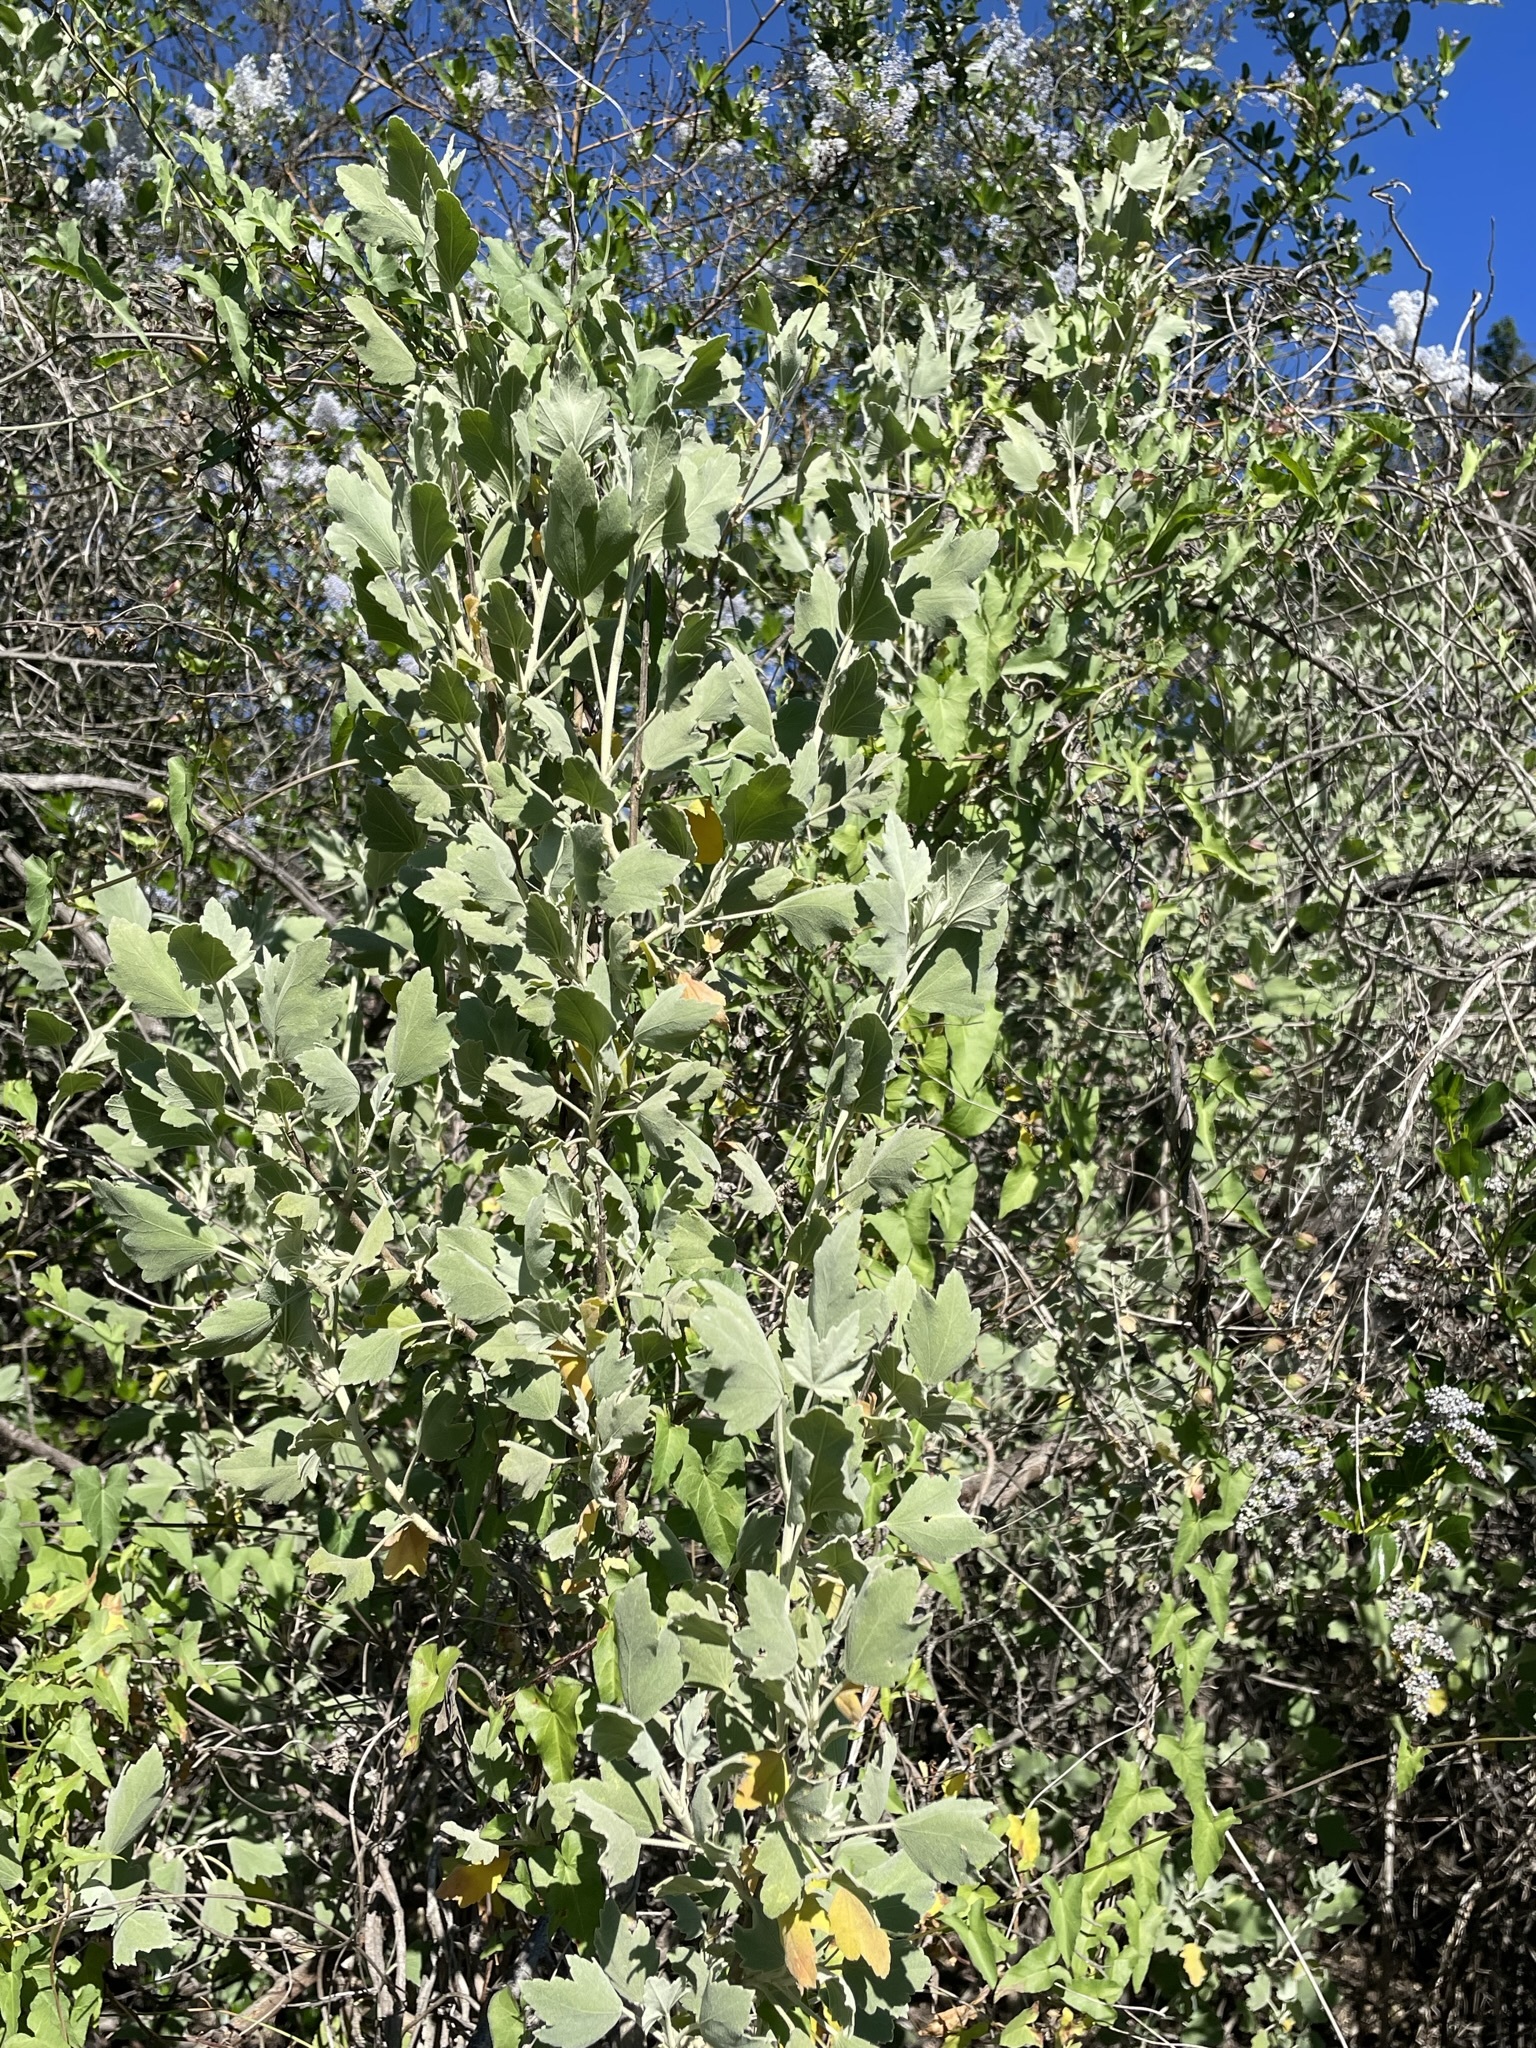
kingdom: Plantae
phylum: Tracheophyta
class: Magnoliopsida
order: Malvales
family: Malvaceae
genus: Malacothamnus
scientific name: Malacothamnus fasciculatus
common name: Sant cruz island bush-mallow
